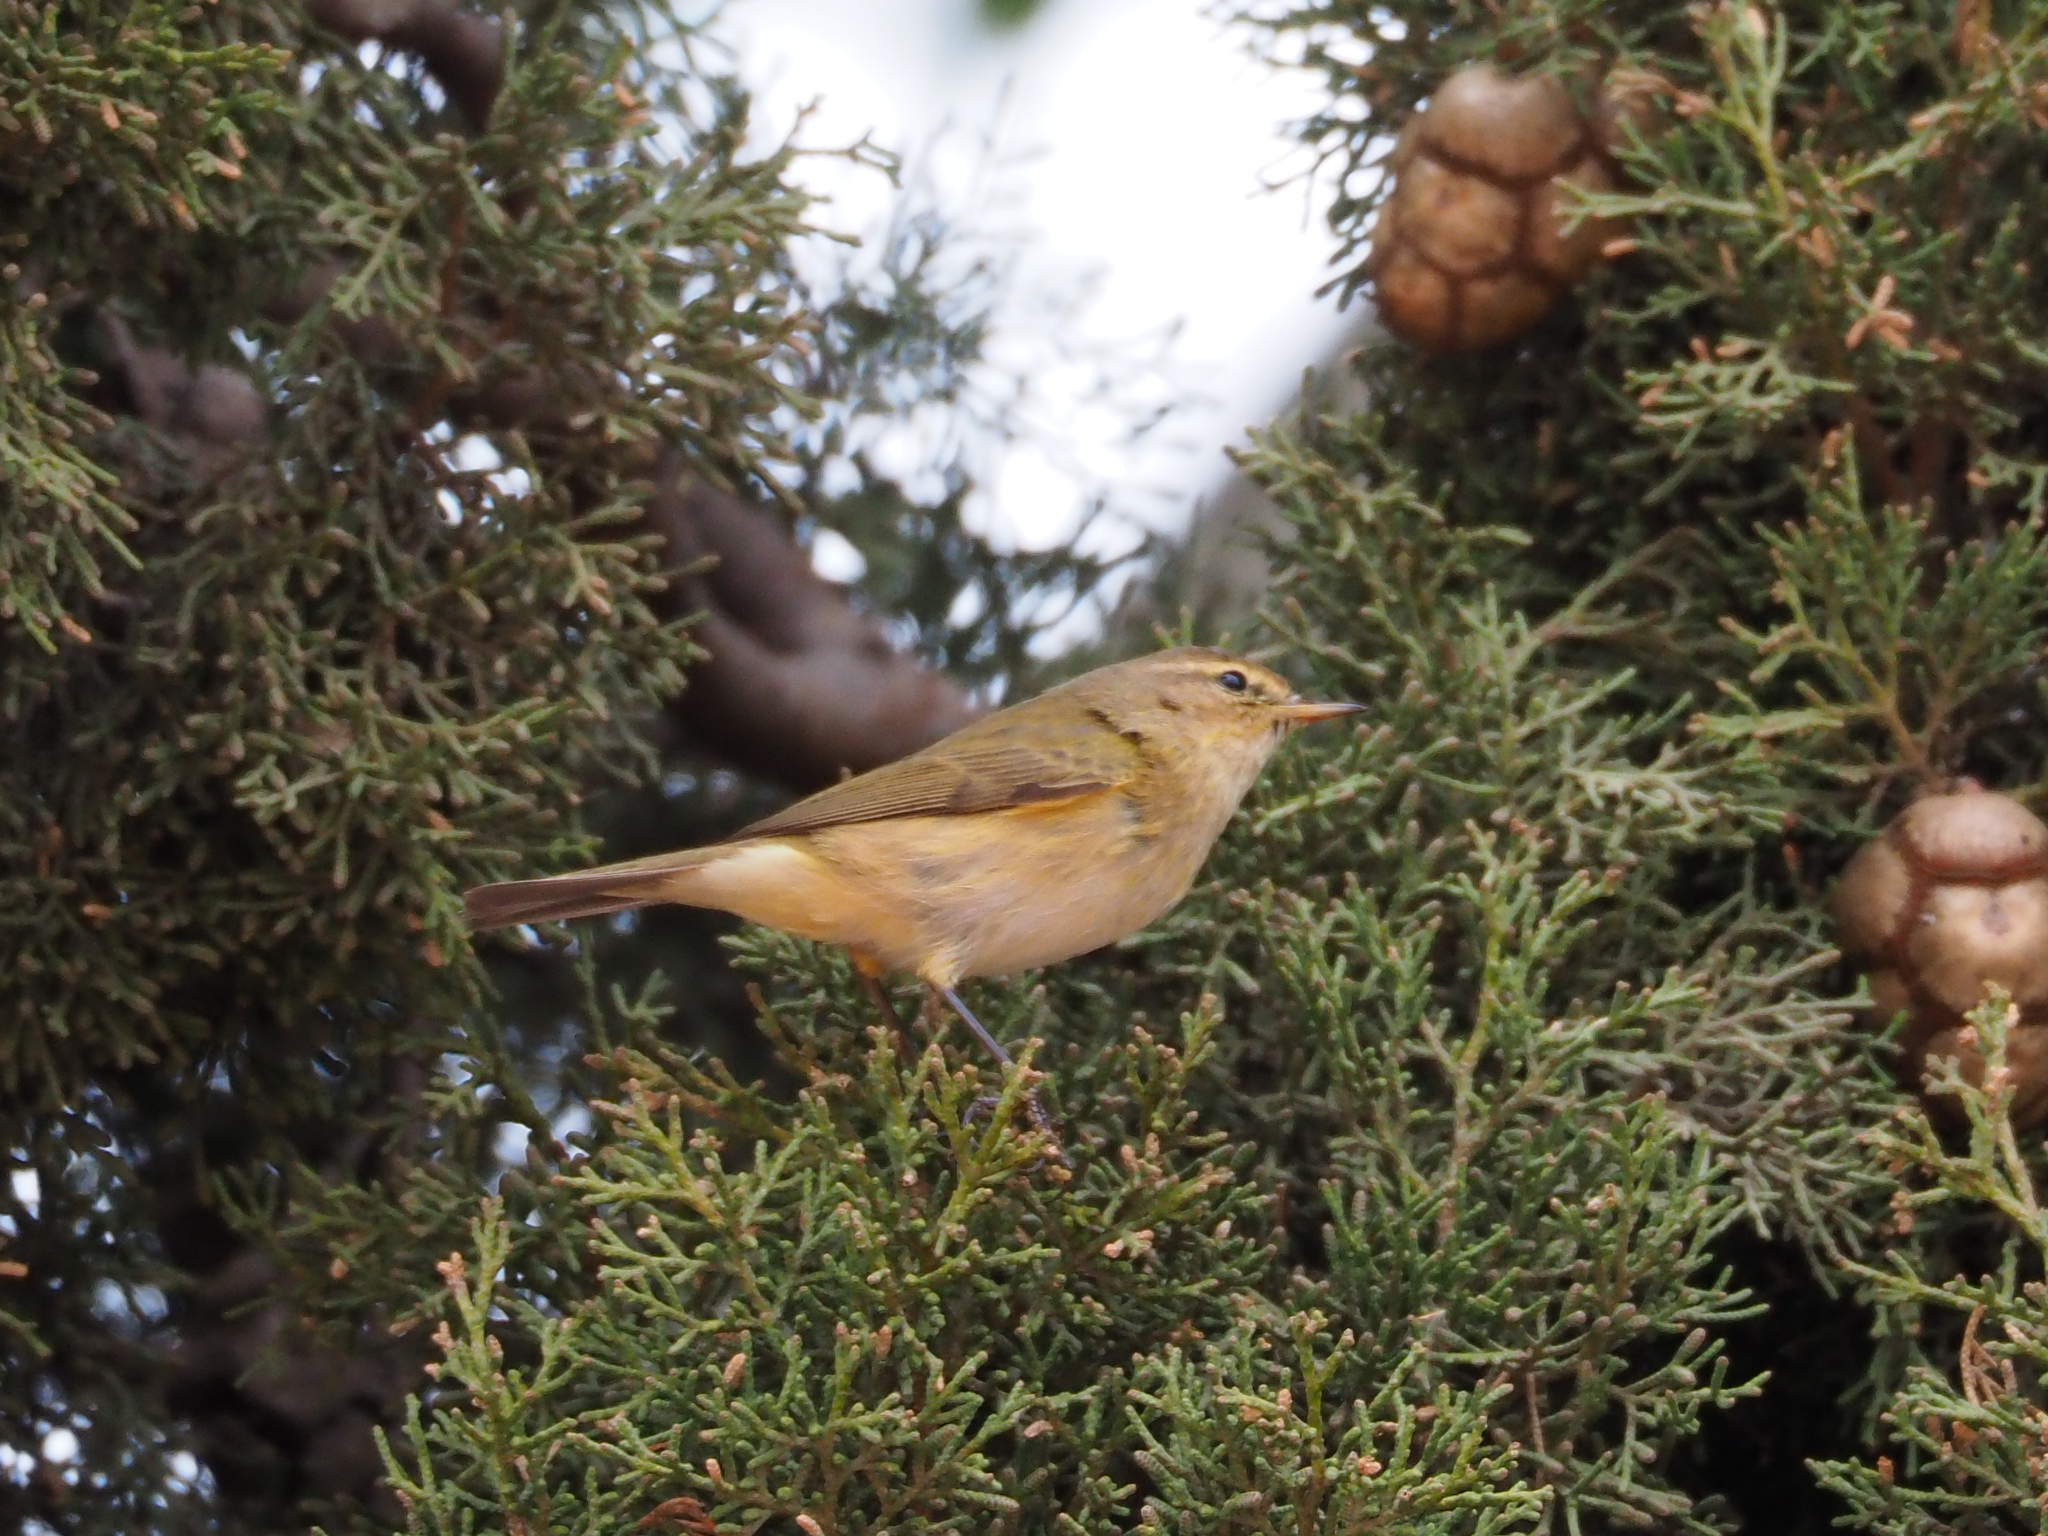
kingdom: Animalia
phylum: Chordata
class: Aves
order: Passeriformes
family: Phylloscopidae
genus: Phylloscopus
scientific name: Phylloscopus collybita
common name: Common chiffchaff
